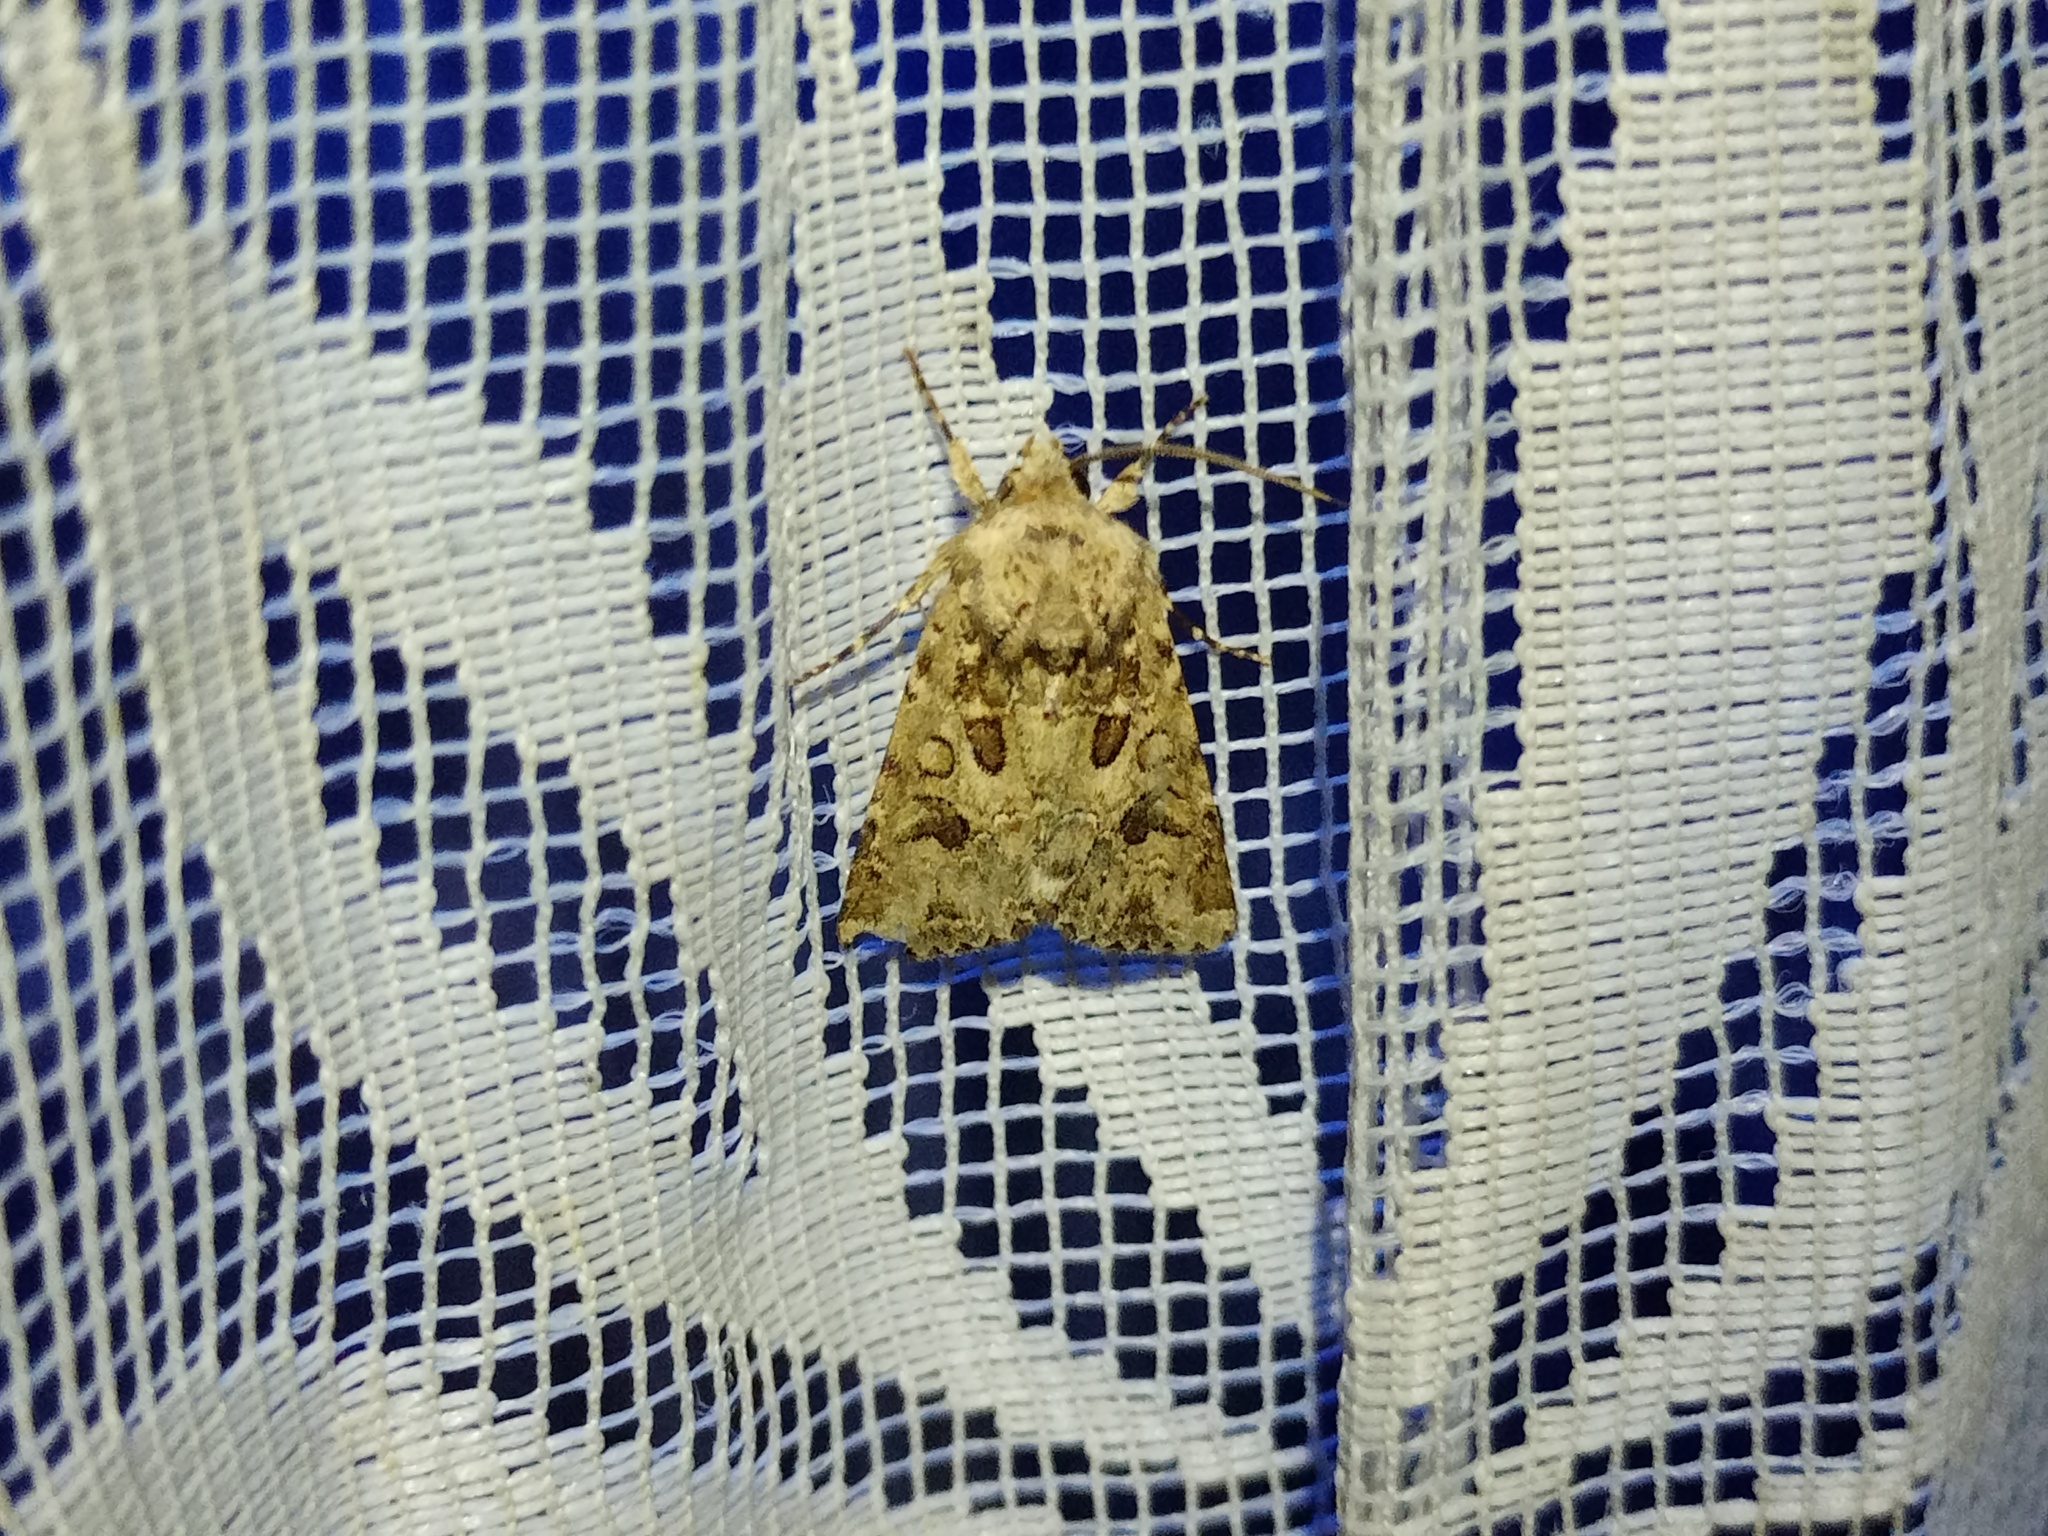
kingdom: Animalia
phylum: Arthropoda
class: Insecta
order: Lepidoptera
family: Noctuidae
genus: Anarta
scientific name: Anarta sodae
